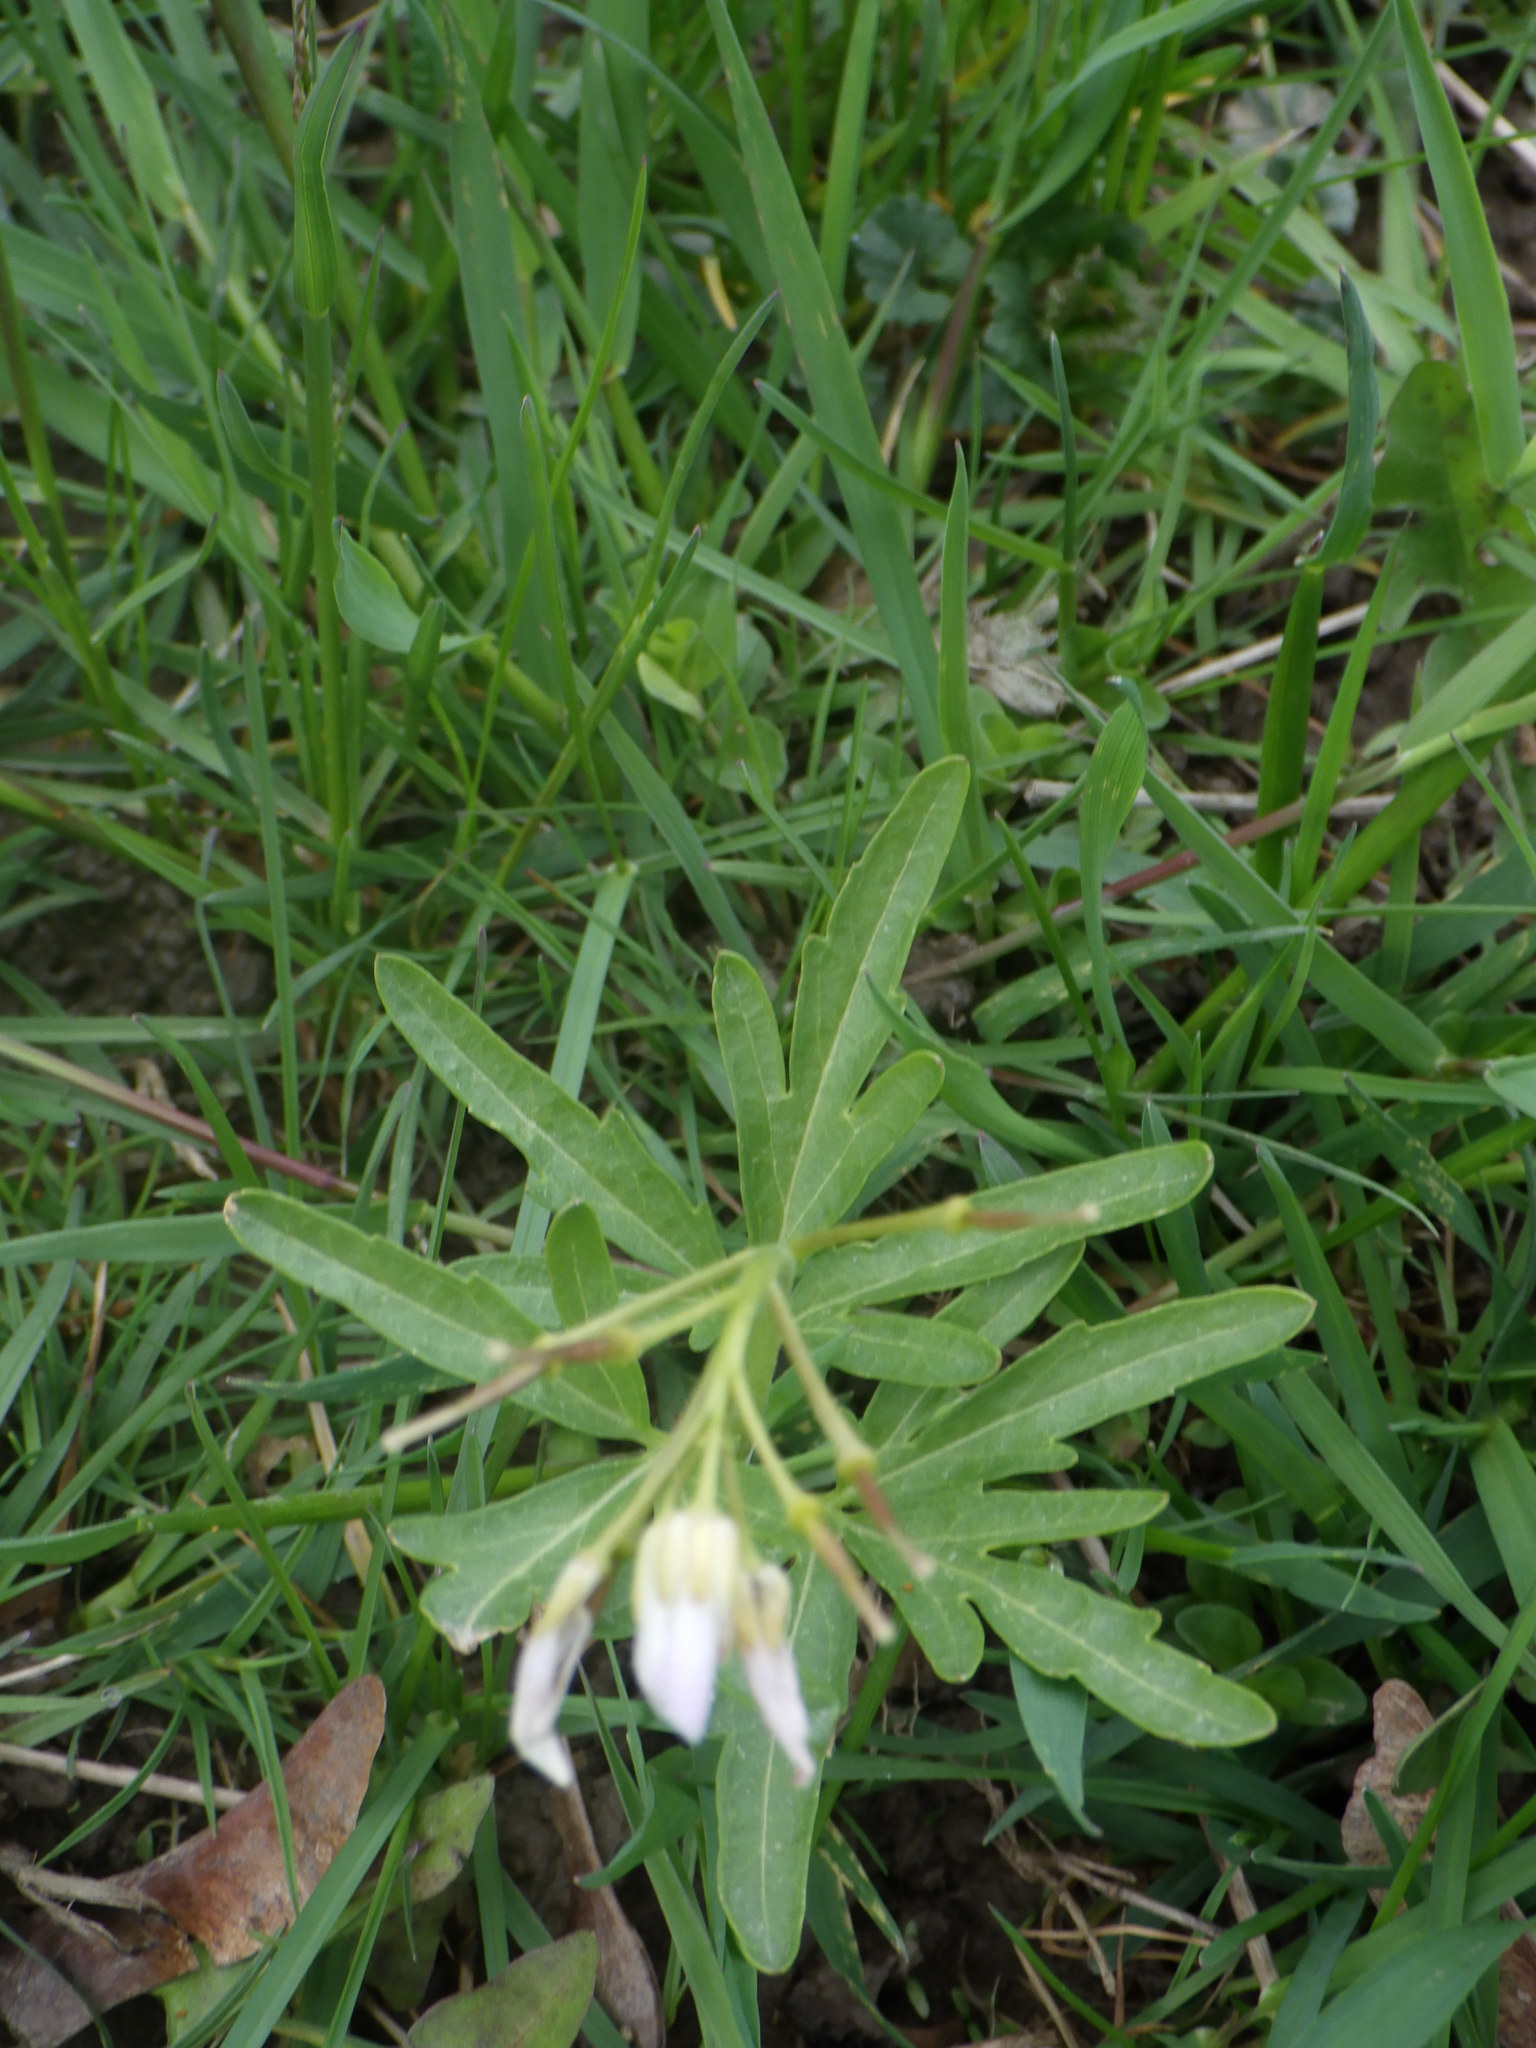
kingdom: Plantae
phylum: Tracheophyta
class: Magnoliopsida
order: Brassicales
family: Brassicaceae
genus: Cardamine
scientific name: Cardamine concatenata
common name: Cut-leaf toothcup
